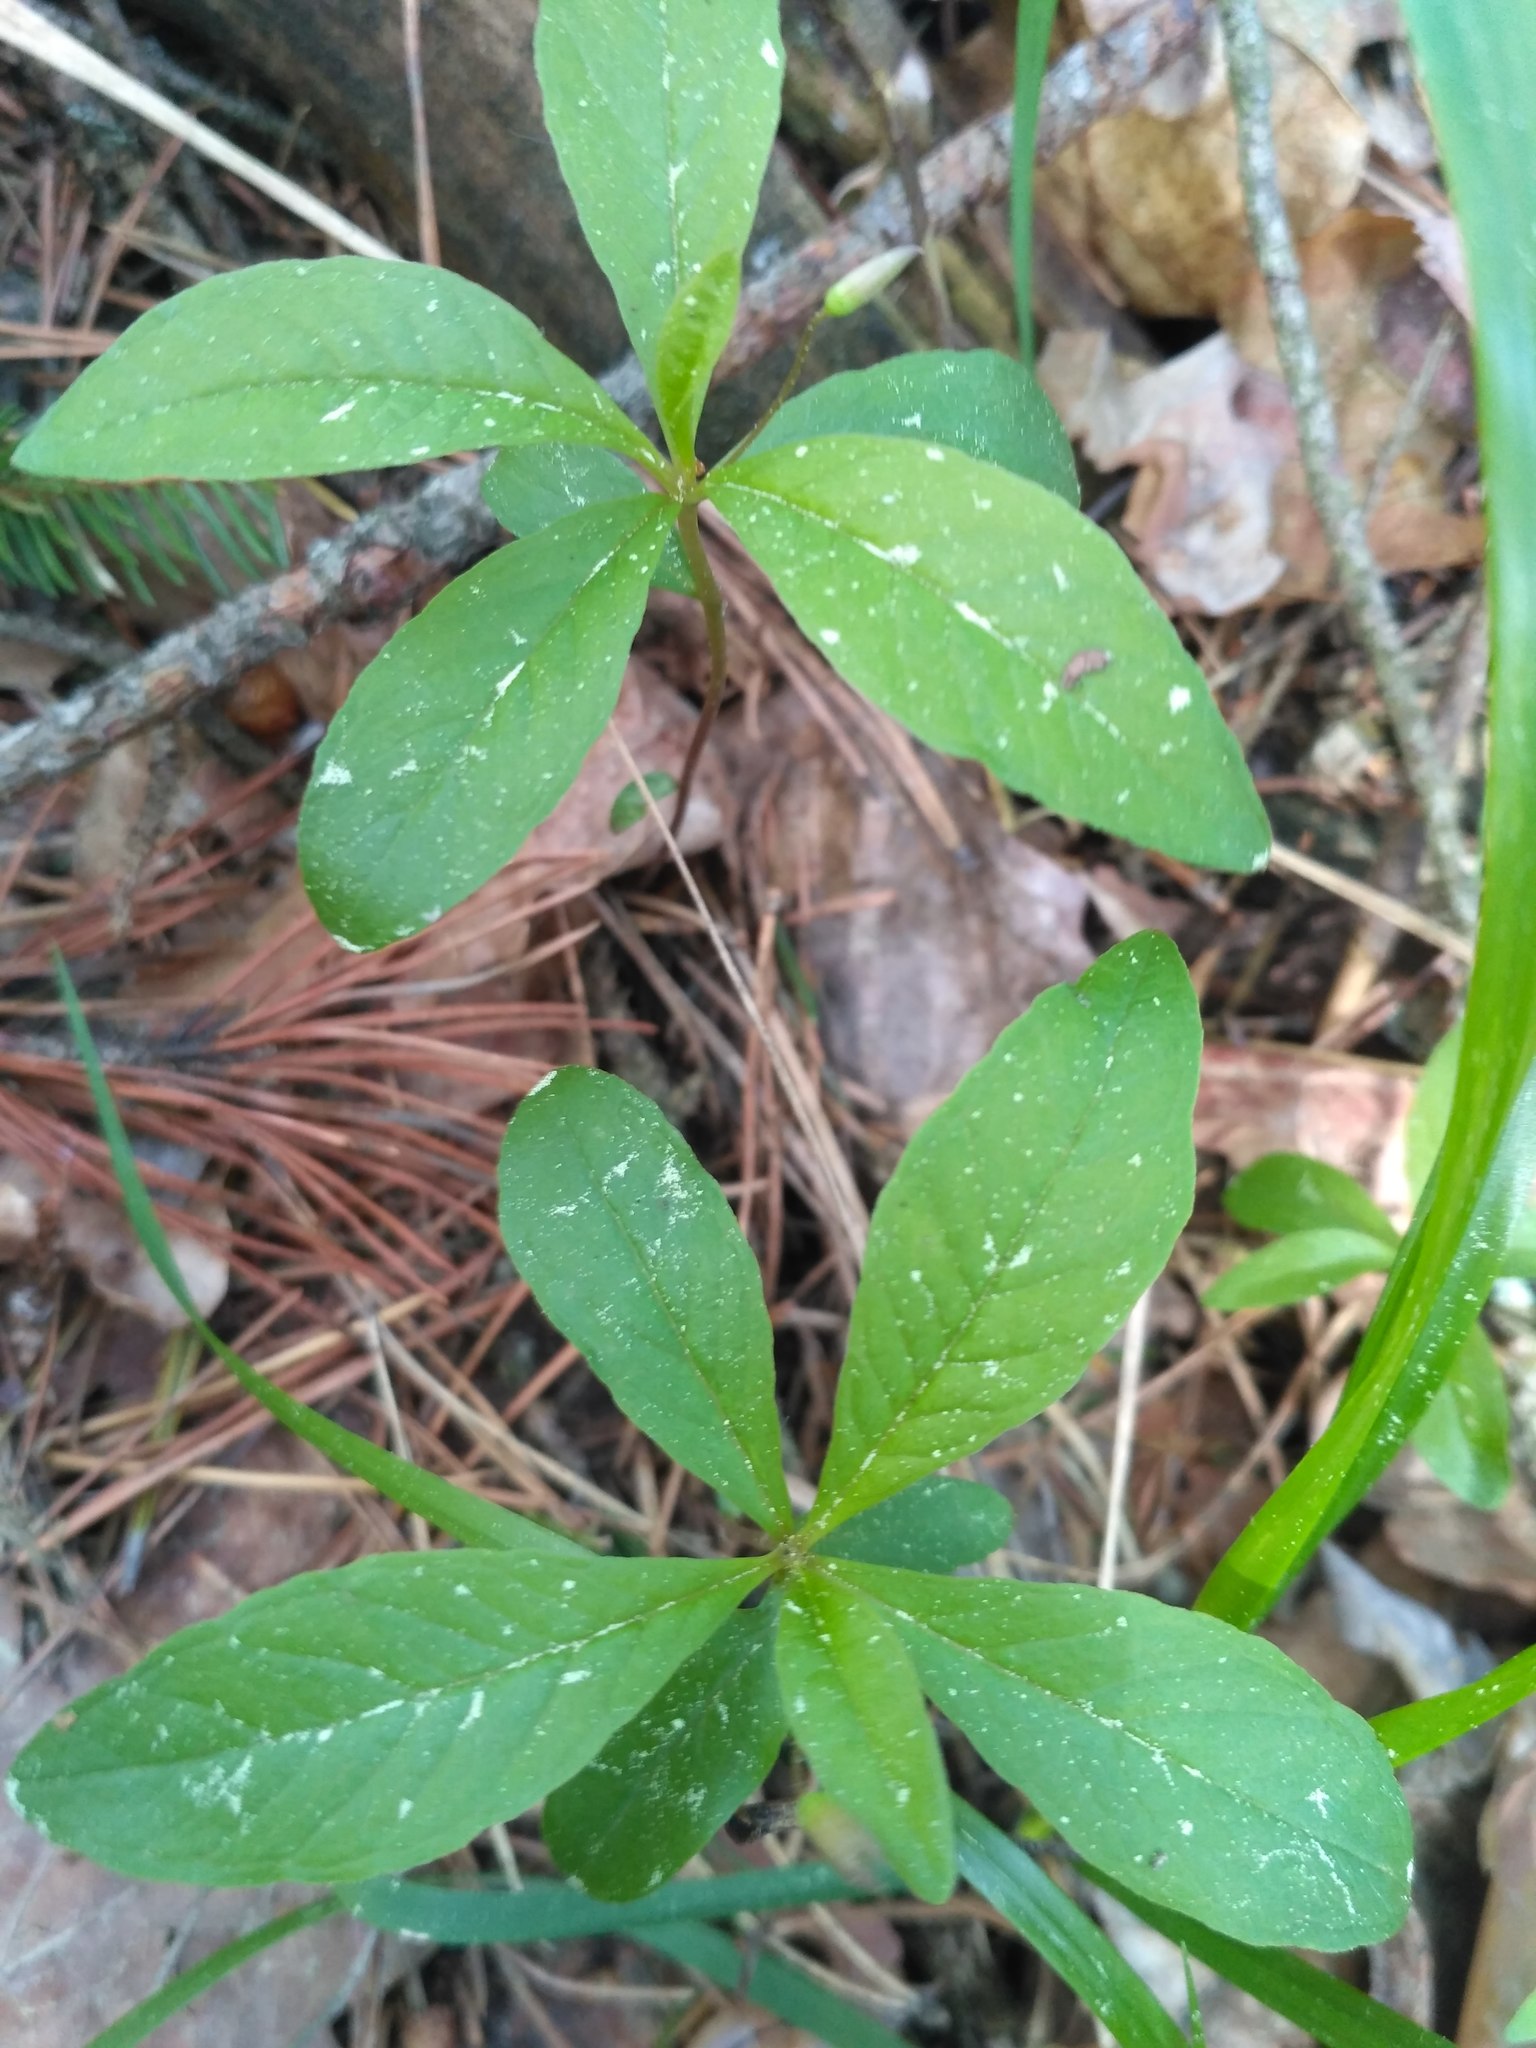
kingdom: Plantae
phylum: Tracheophyta
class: Magnoliopsida
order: Ericales
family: Primulaceae
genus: Lysimachia
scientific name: Lysimachia europaea
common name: Arctic starflower
